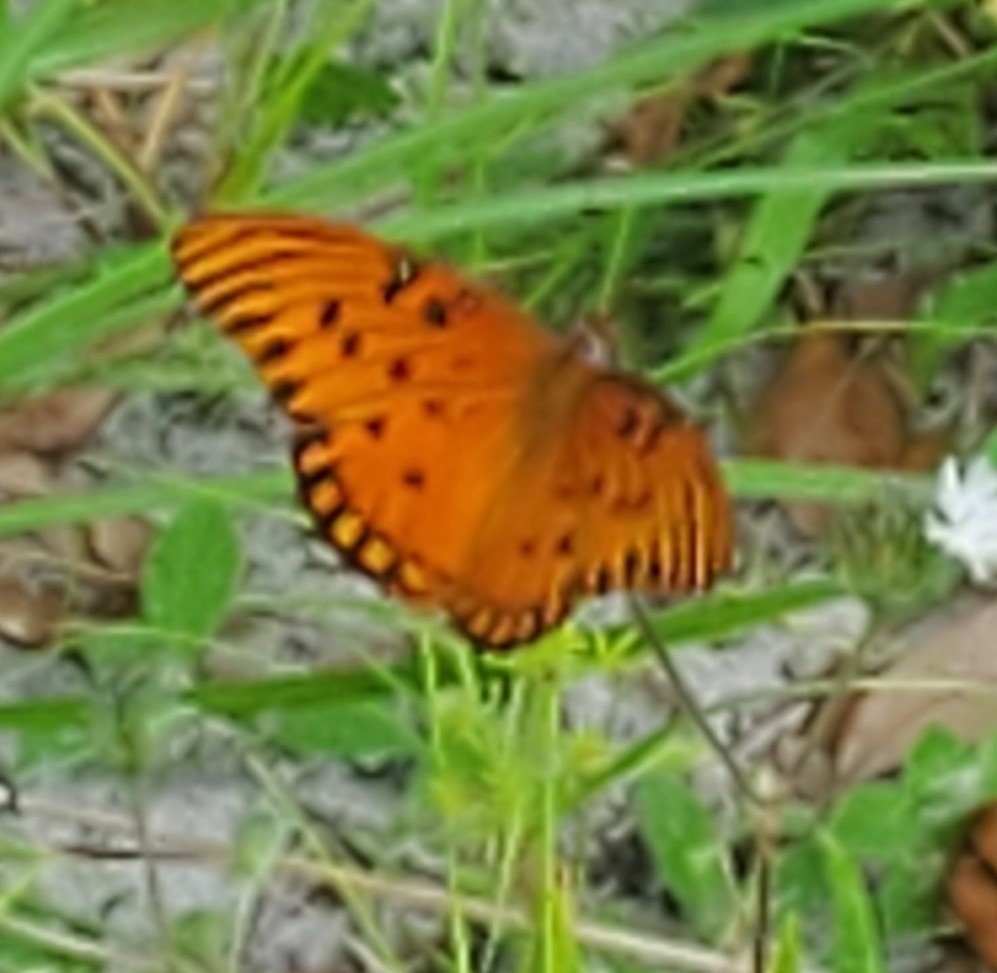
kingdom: Animalia
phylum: Arthropoda
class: Insecta
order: Lepidoptera
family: Nymphalidae
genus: Dione
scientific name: Dione vanillae
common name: Gulf fritillary
